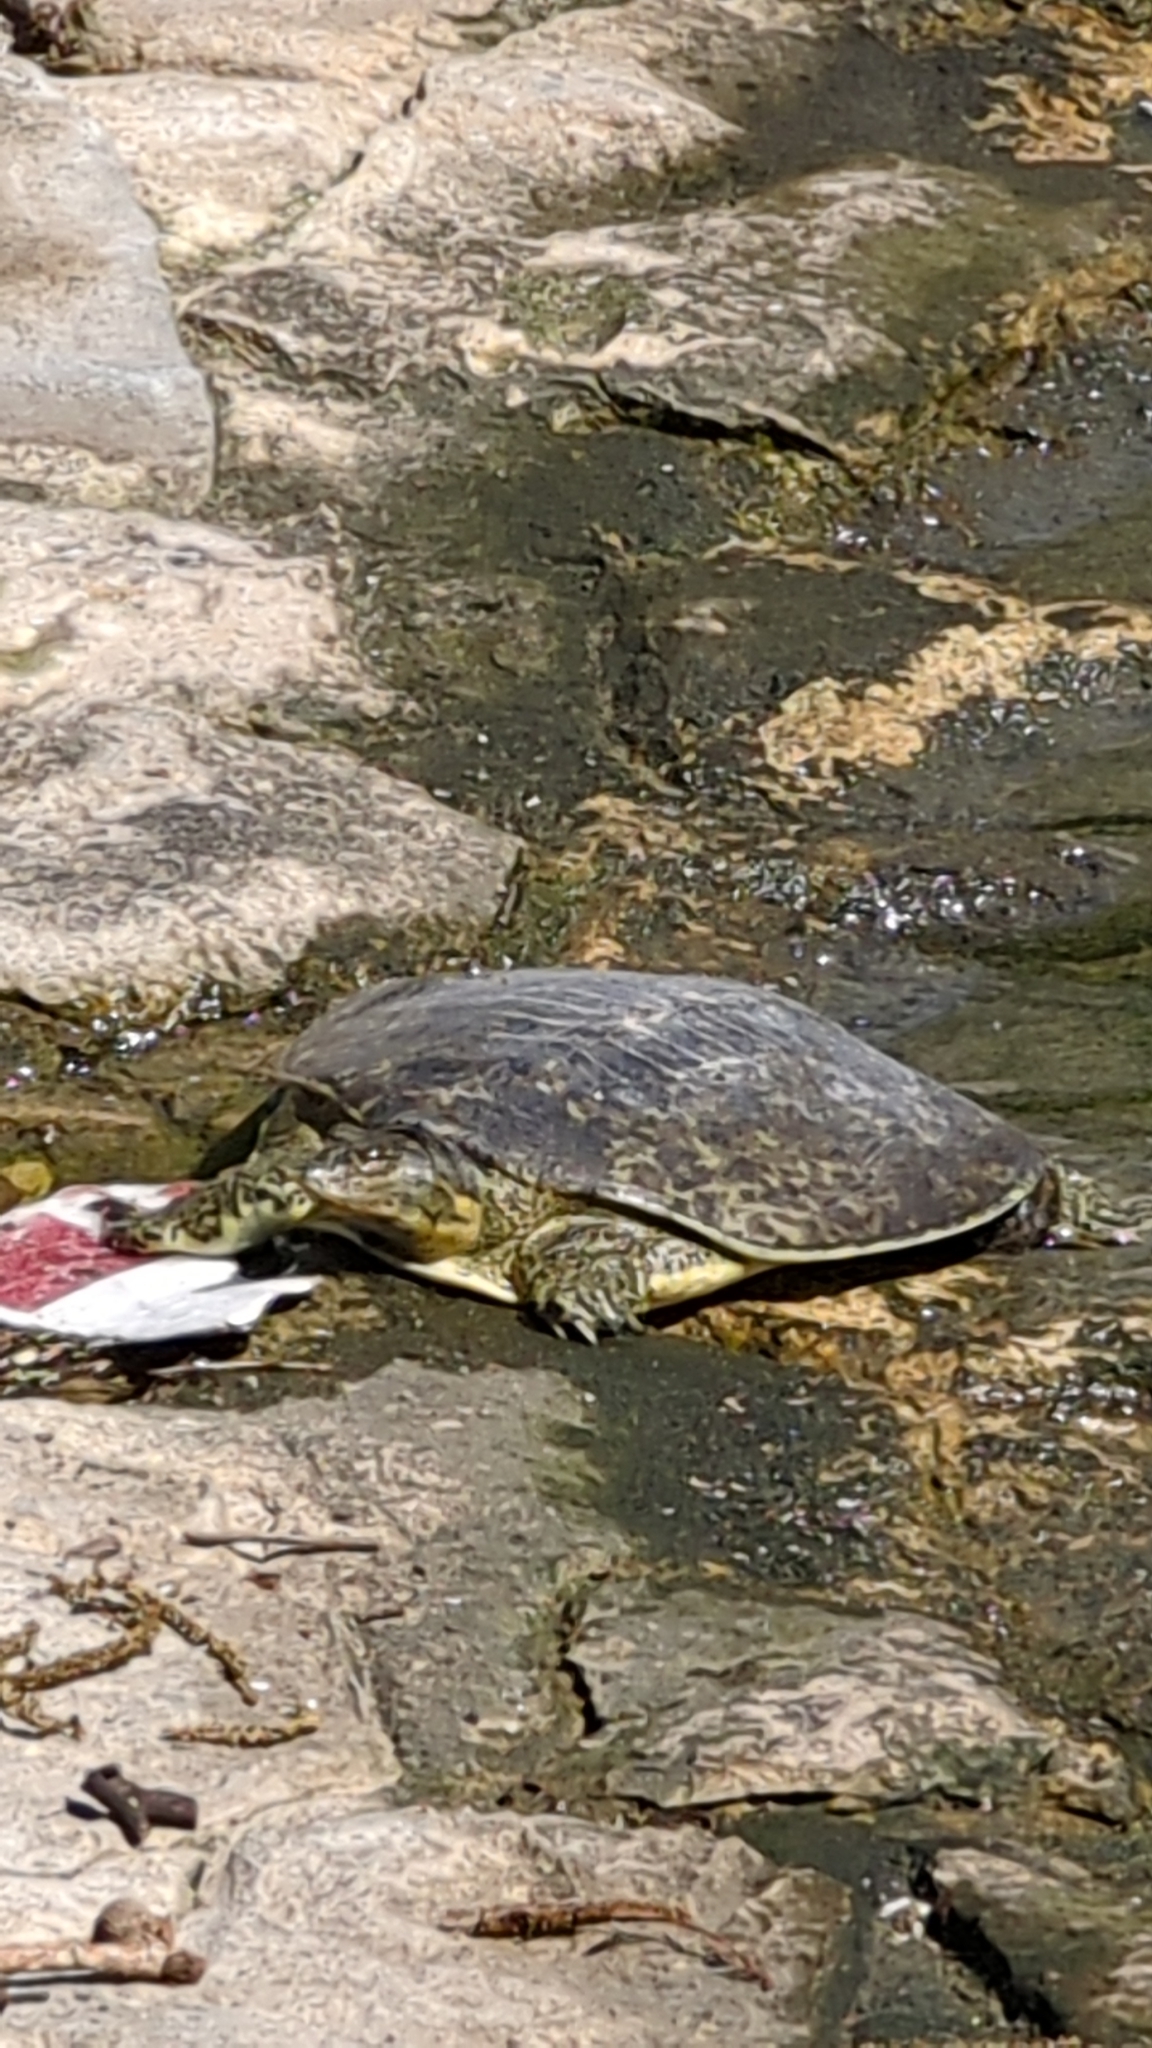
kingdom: Animalia
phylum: Chordata
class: Testudines
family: Trionychidae
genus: Apalone
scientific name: Apalone spinifera
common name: Spiny softshell turtle
